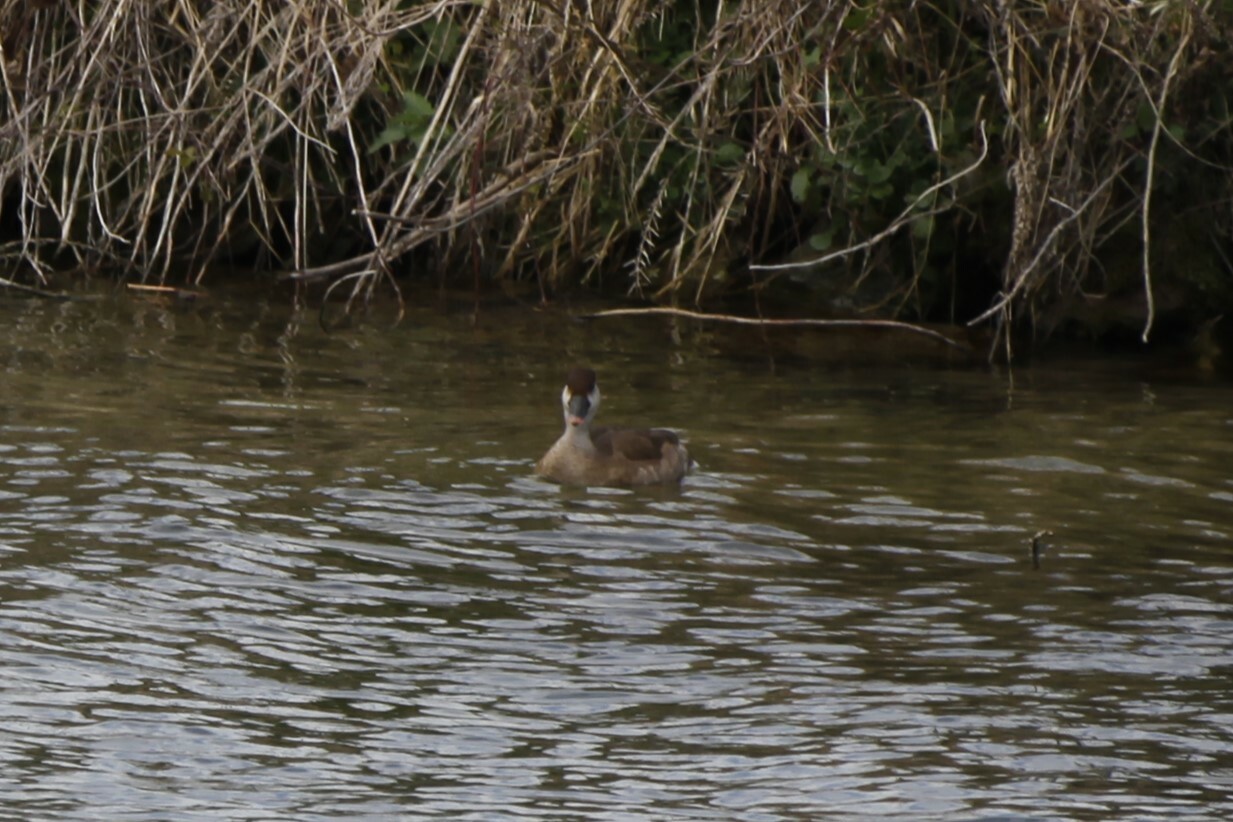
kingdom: Animalia
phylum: Chordata
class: Aves
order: Anseriformes
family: Anatidae
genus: Netta
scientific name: Netta rufina
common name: Red-crested pochard
